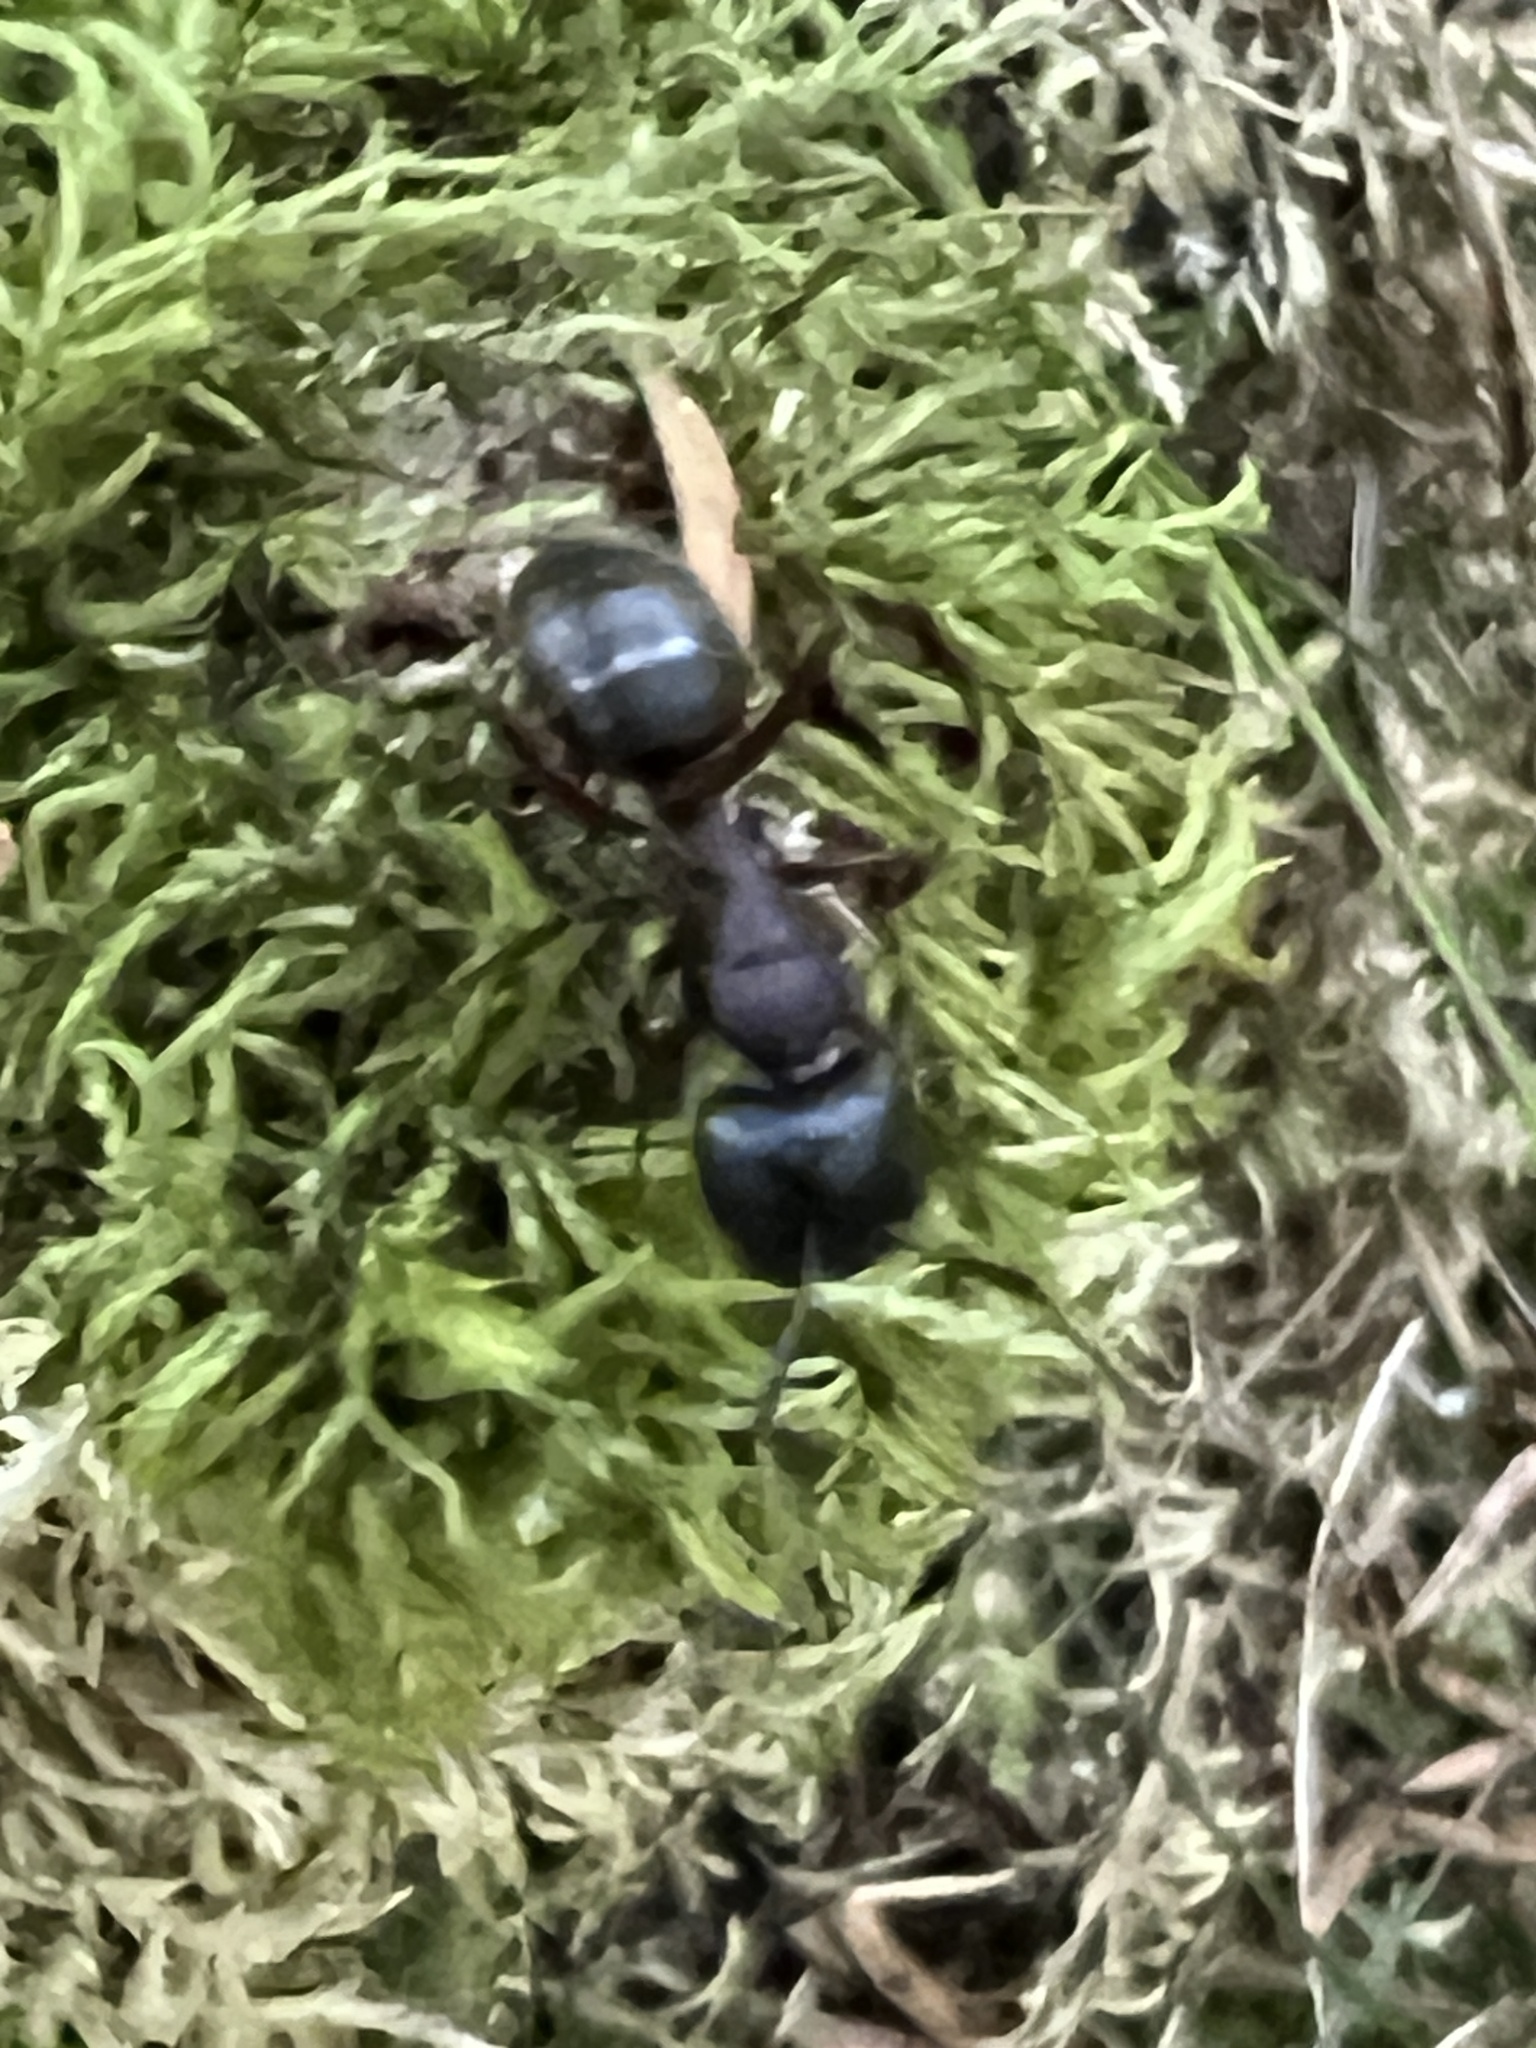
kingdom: Animalia
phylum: Arthropoda
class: Insecta
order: Hymenoptera
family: Formicidae
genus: Camponotus
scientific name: Camponotus herculeanus
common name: Hercules ant
